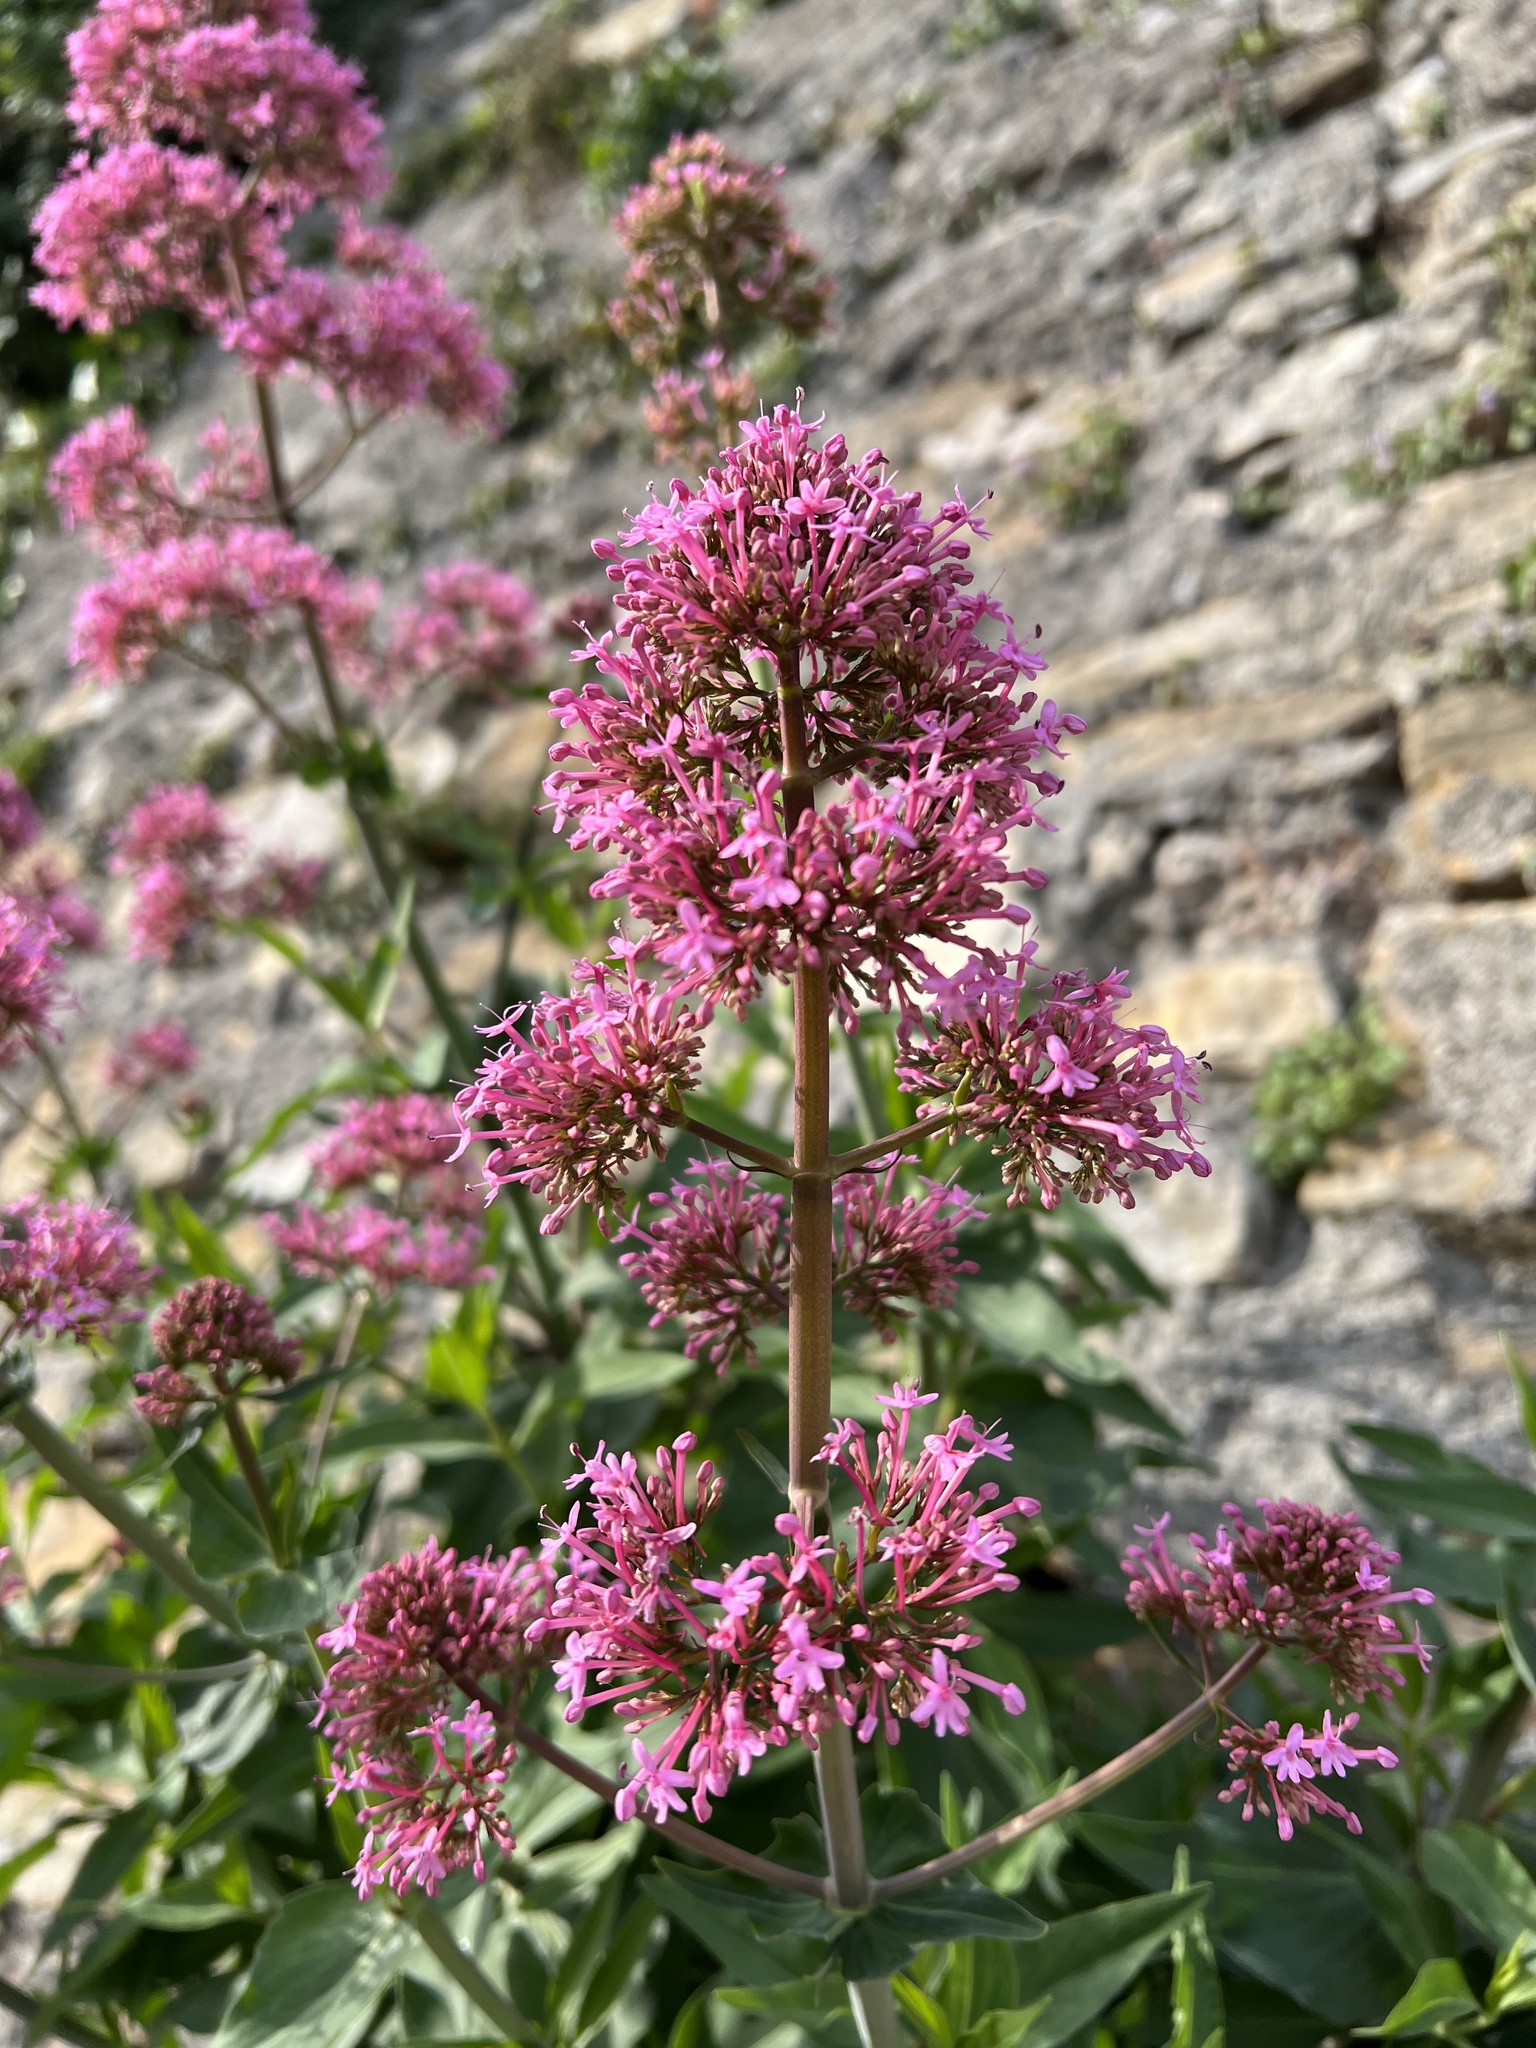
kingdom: Plantae
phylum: Tracheophyta
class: Magnoliopsida
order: Dipsacales
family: Caprifoliaceae
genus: Centranthus
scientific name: Centranthus ruber
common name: Red valerian
